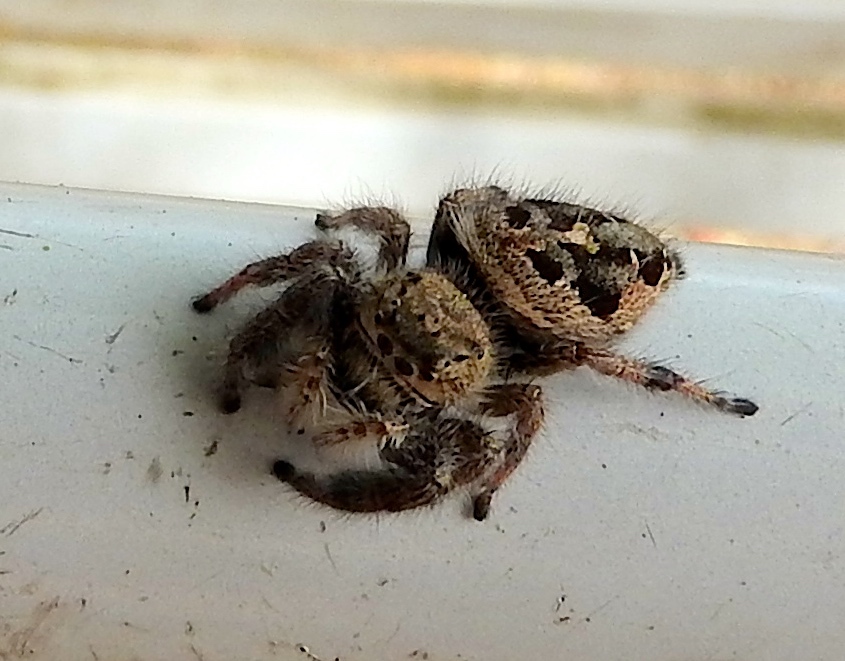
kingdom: Animalia
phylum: Arthropoda
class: Arachnida
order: Araneae
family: Salticidae
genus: Phidippus
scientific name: Phidippus
